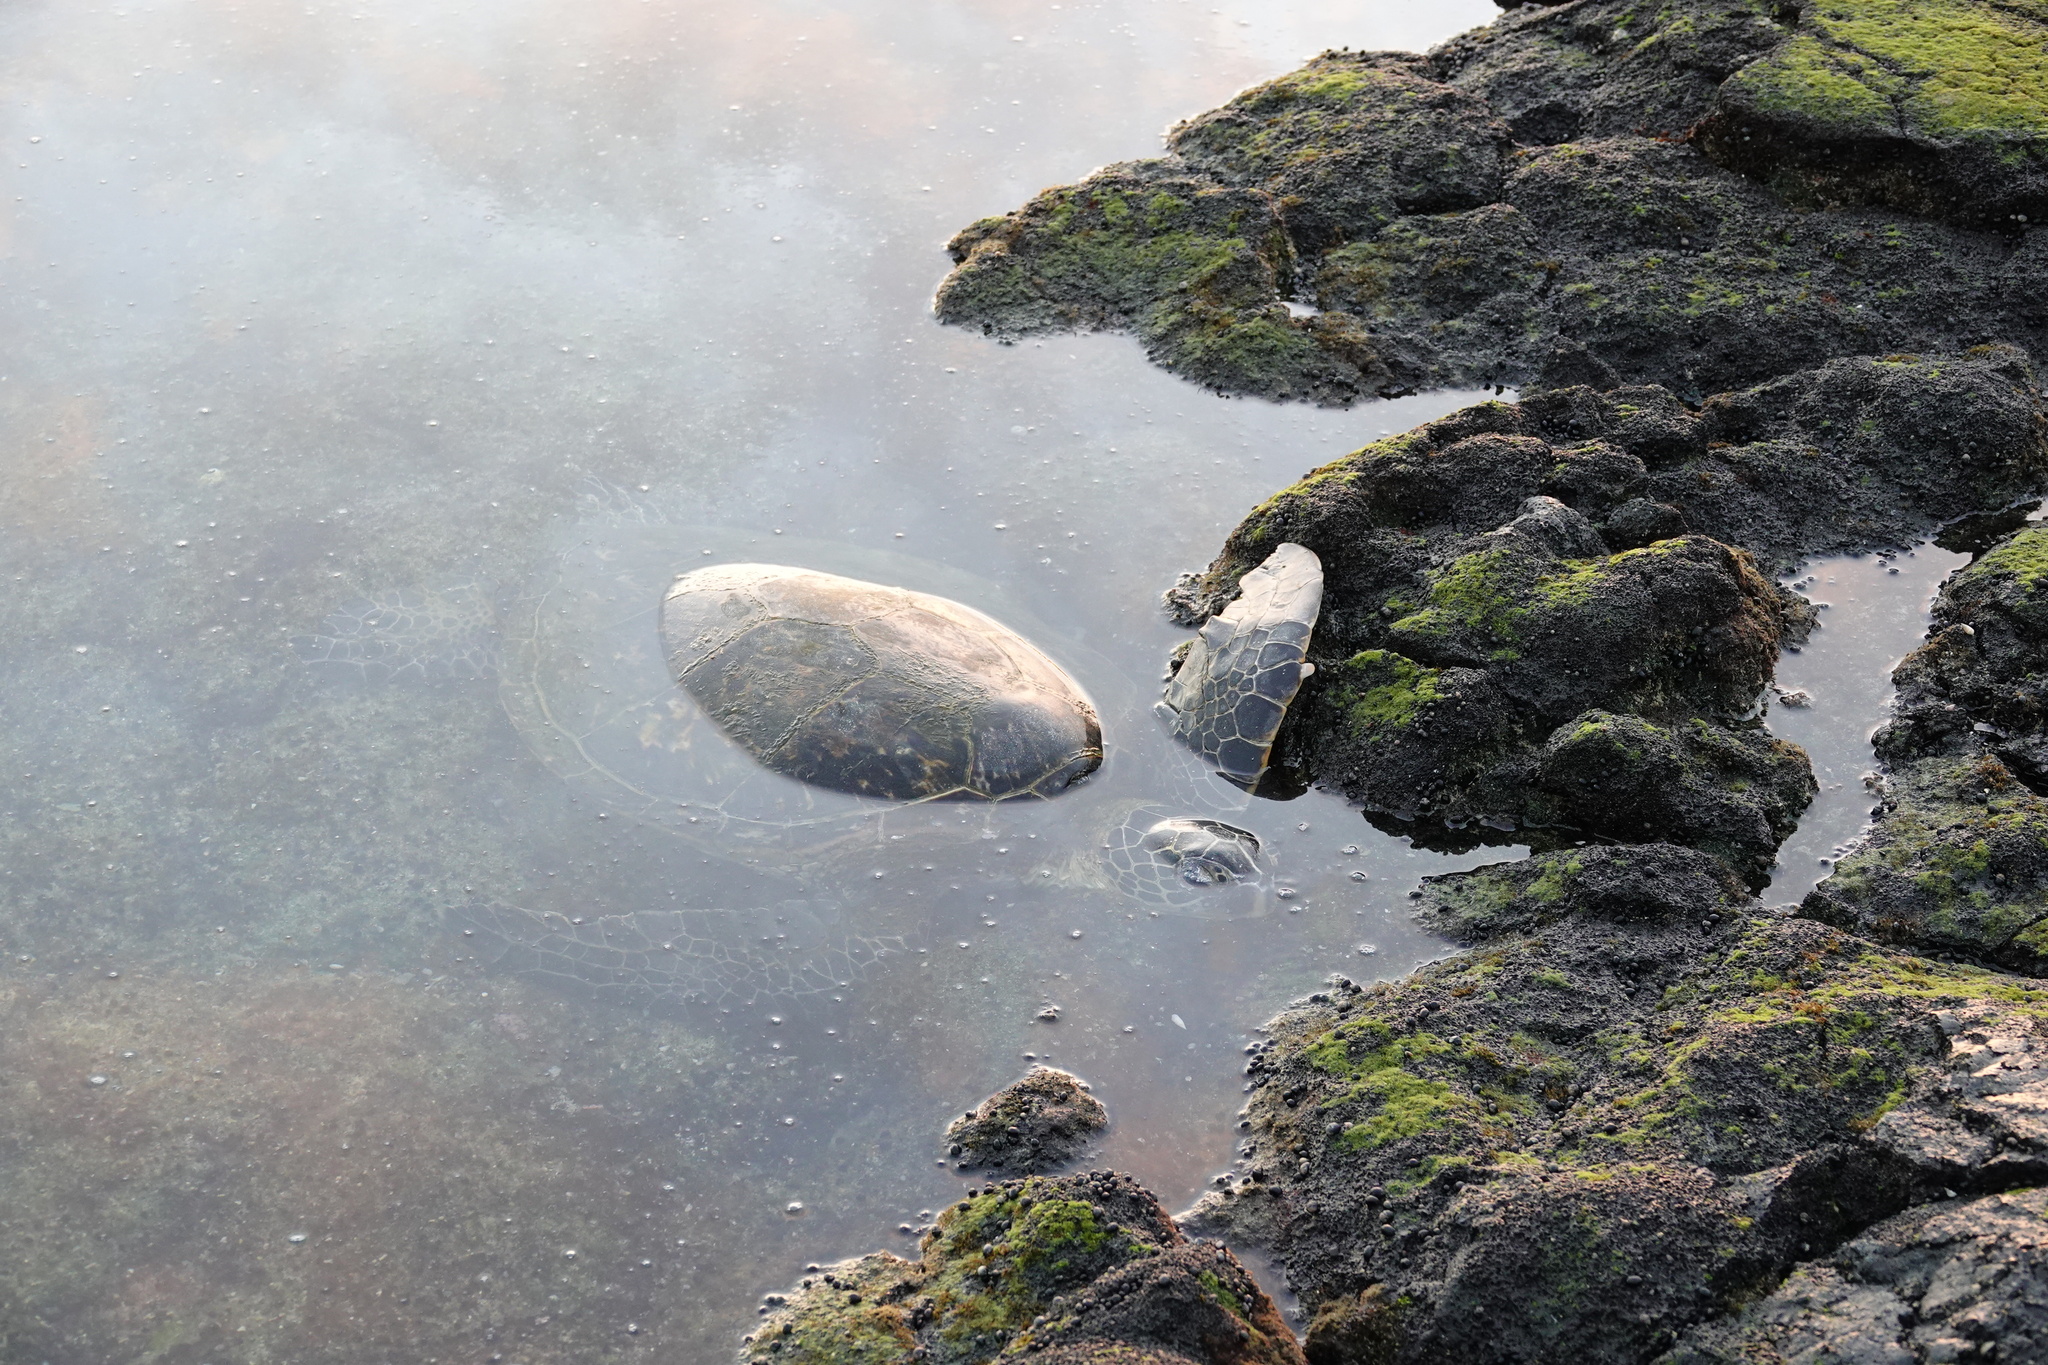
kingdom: Animalia
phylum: Chordata
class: Testudines
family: Cheloniidae
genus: Chelonia
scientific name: Chelonia mydas
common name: Green turtle
